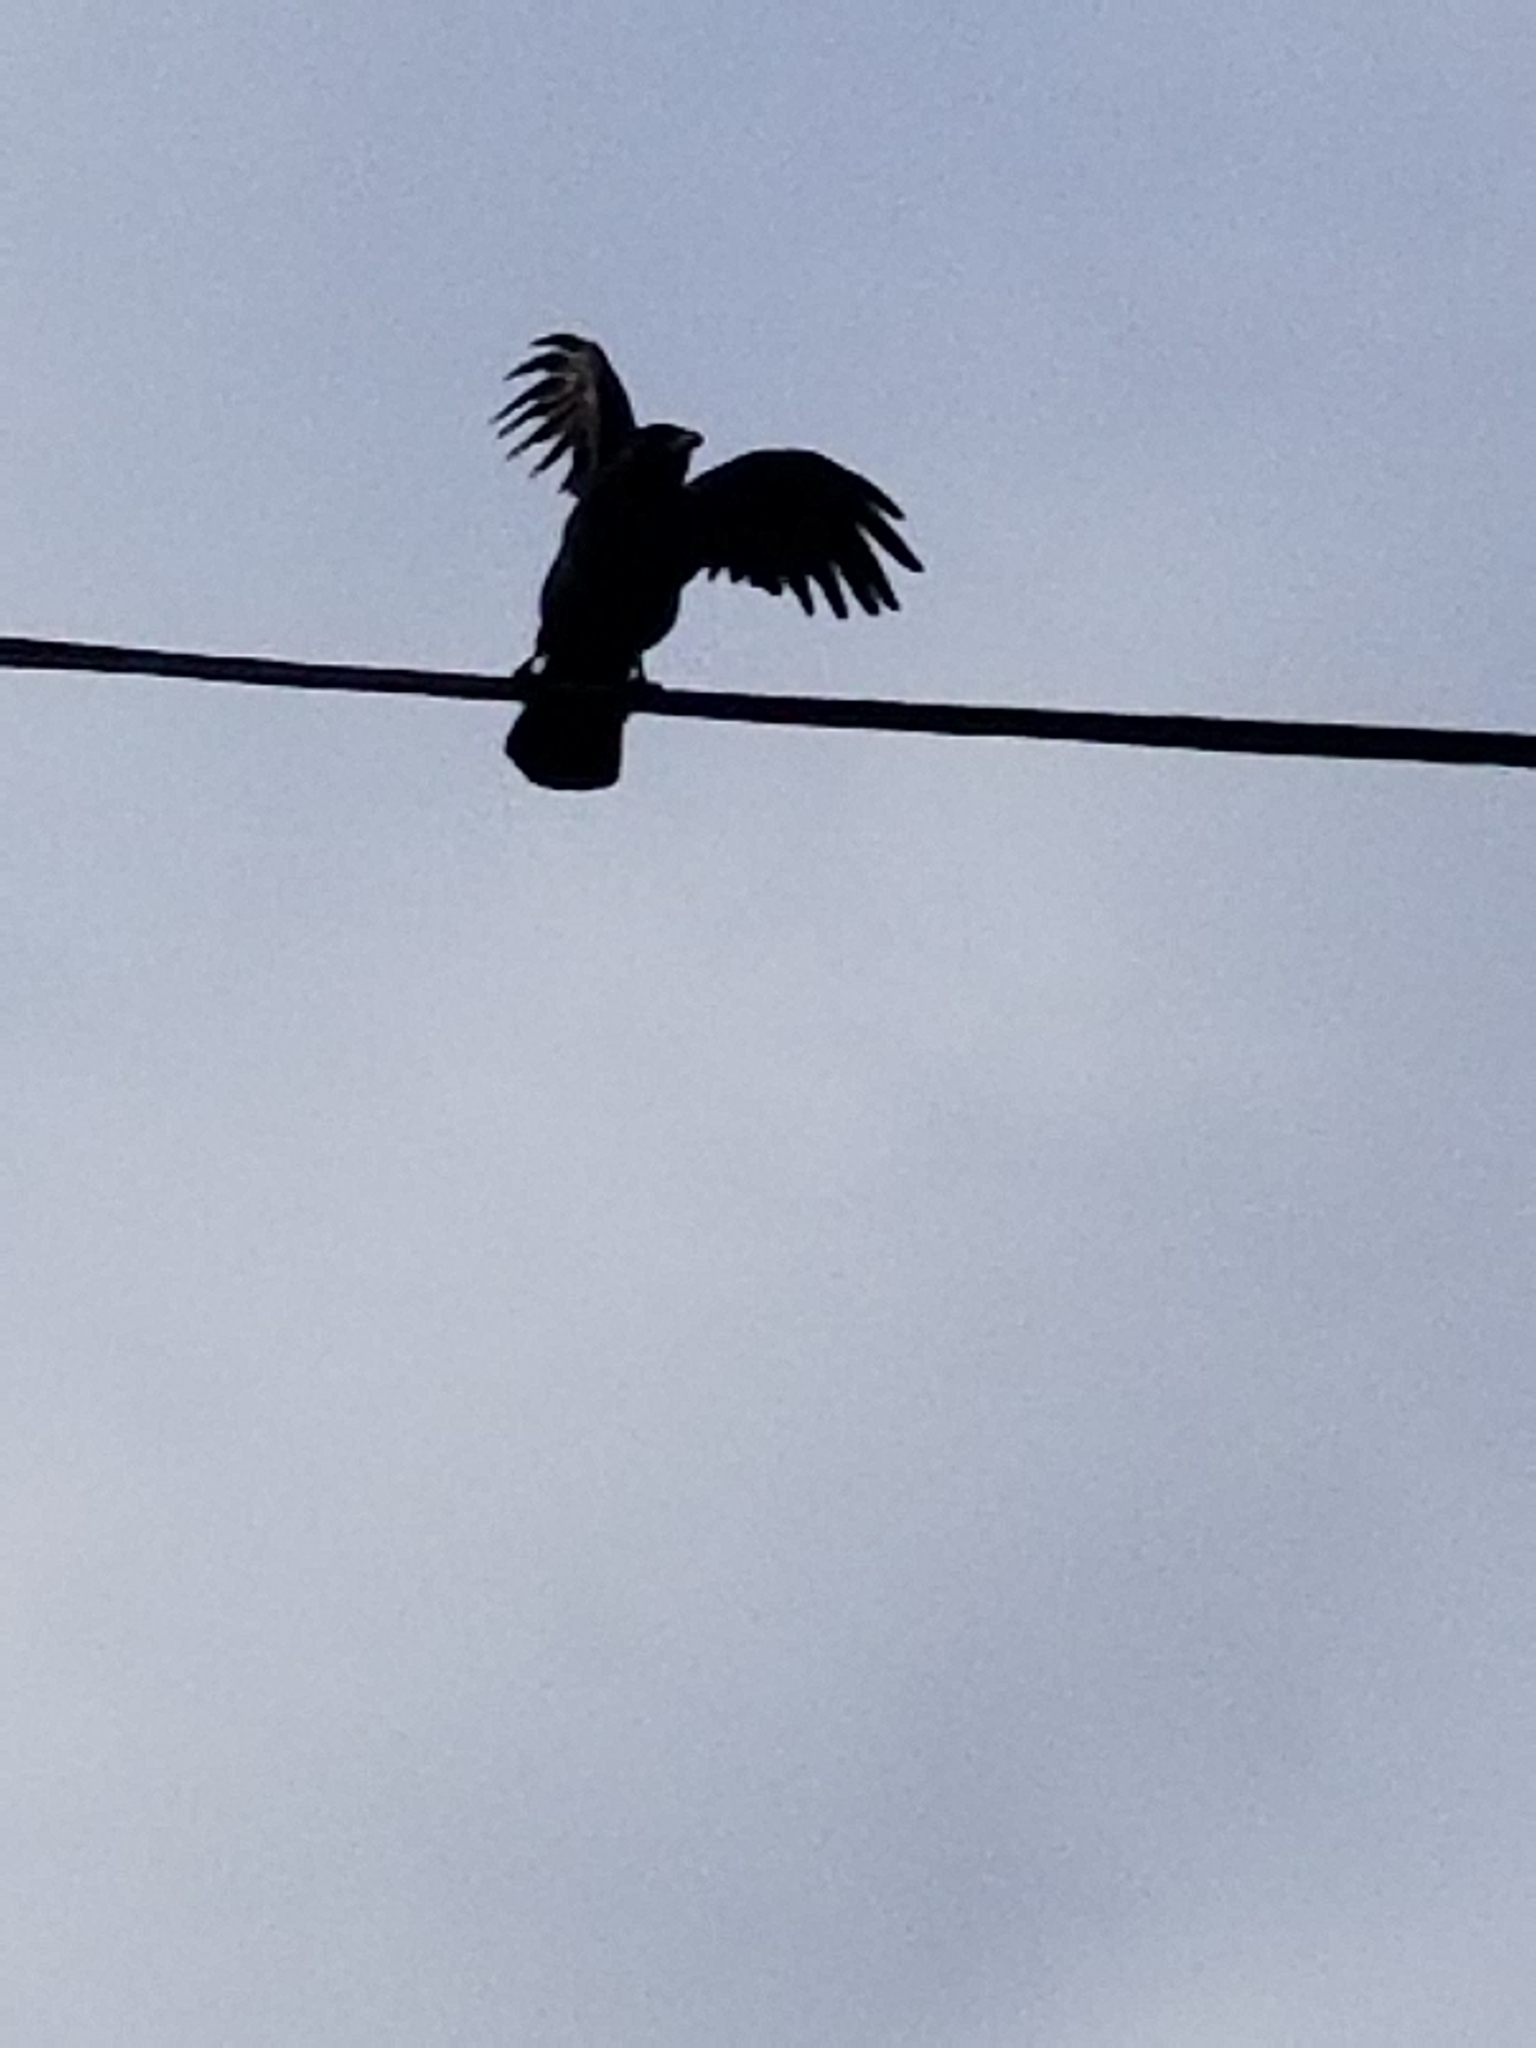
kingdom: Animalia
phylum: Chordata
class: Aves
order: Passeriformes
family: Corvidae
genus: Corvus
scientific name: Corvus brachyrhynchos
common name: American crow
